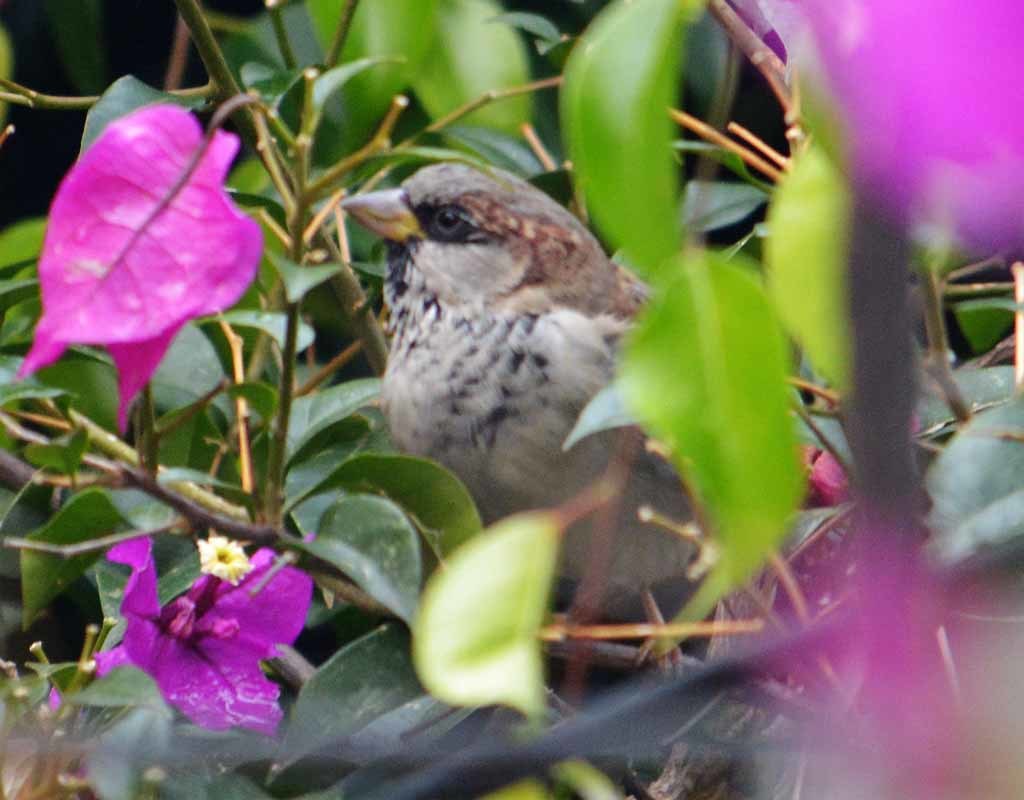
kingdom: Animalia
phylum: Chordata
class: Aves
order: Passeriformes
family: Passeridae
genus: Passer
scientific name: Passer domesticus
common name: House sparrow
